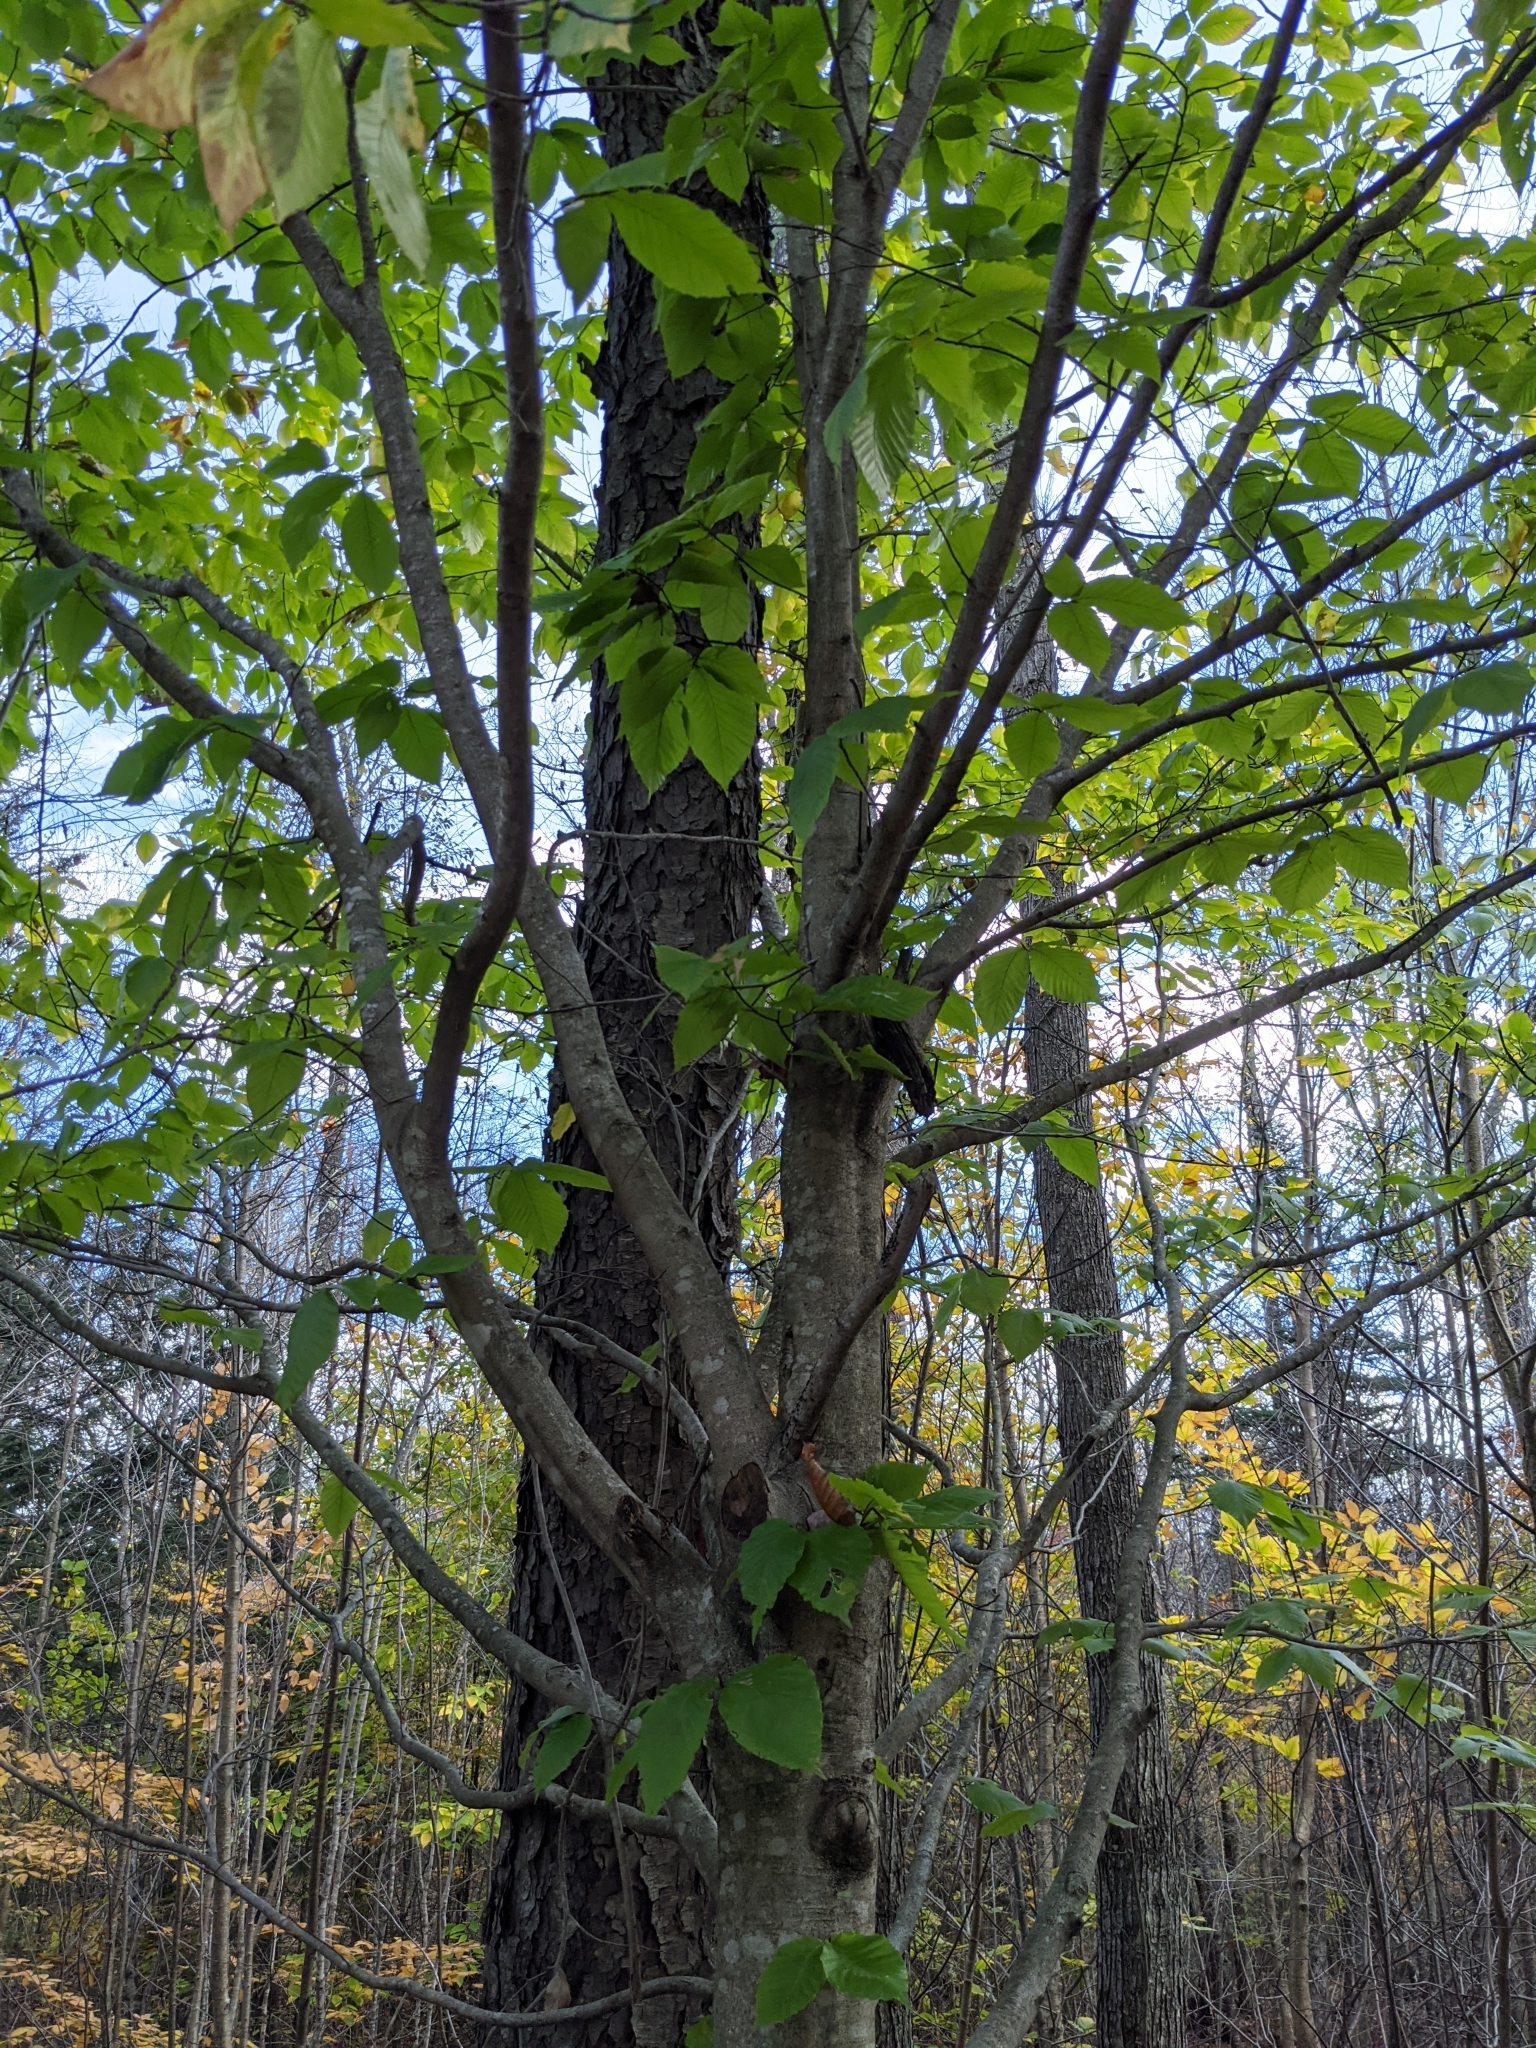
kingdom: Plantae
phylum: Tracheophyta
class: Magnoliopsida
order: Fagales
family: Fagaceae
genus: Fagus
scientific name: Fagus grandifolia
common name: American beech
